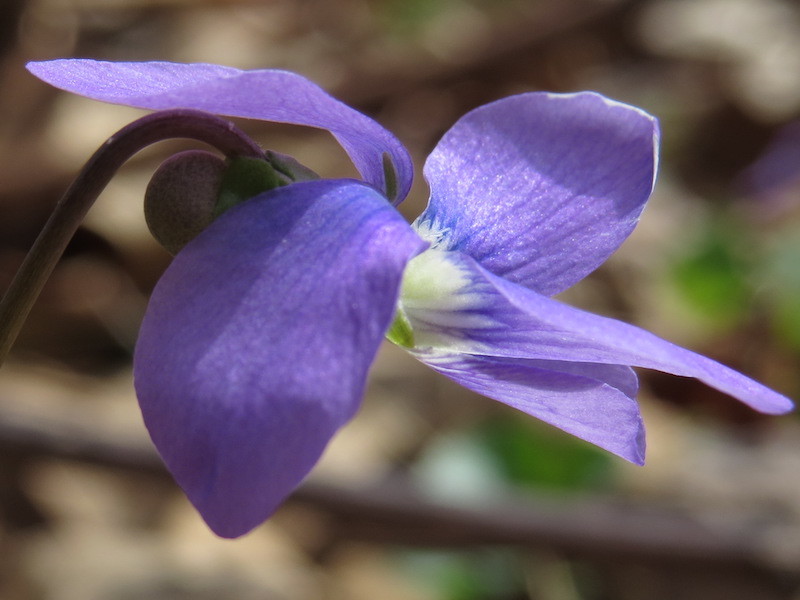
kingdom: Plantae
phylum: Tracheophyta
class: Magnoliopsida
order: Malpighiales
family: Violaceae
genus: Viola
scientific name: Viola sororia
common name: Dooryard violet
